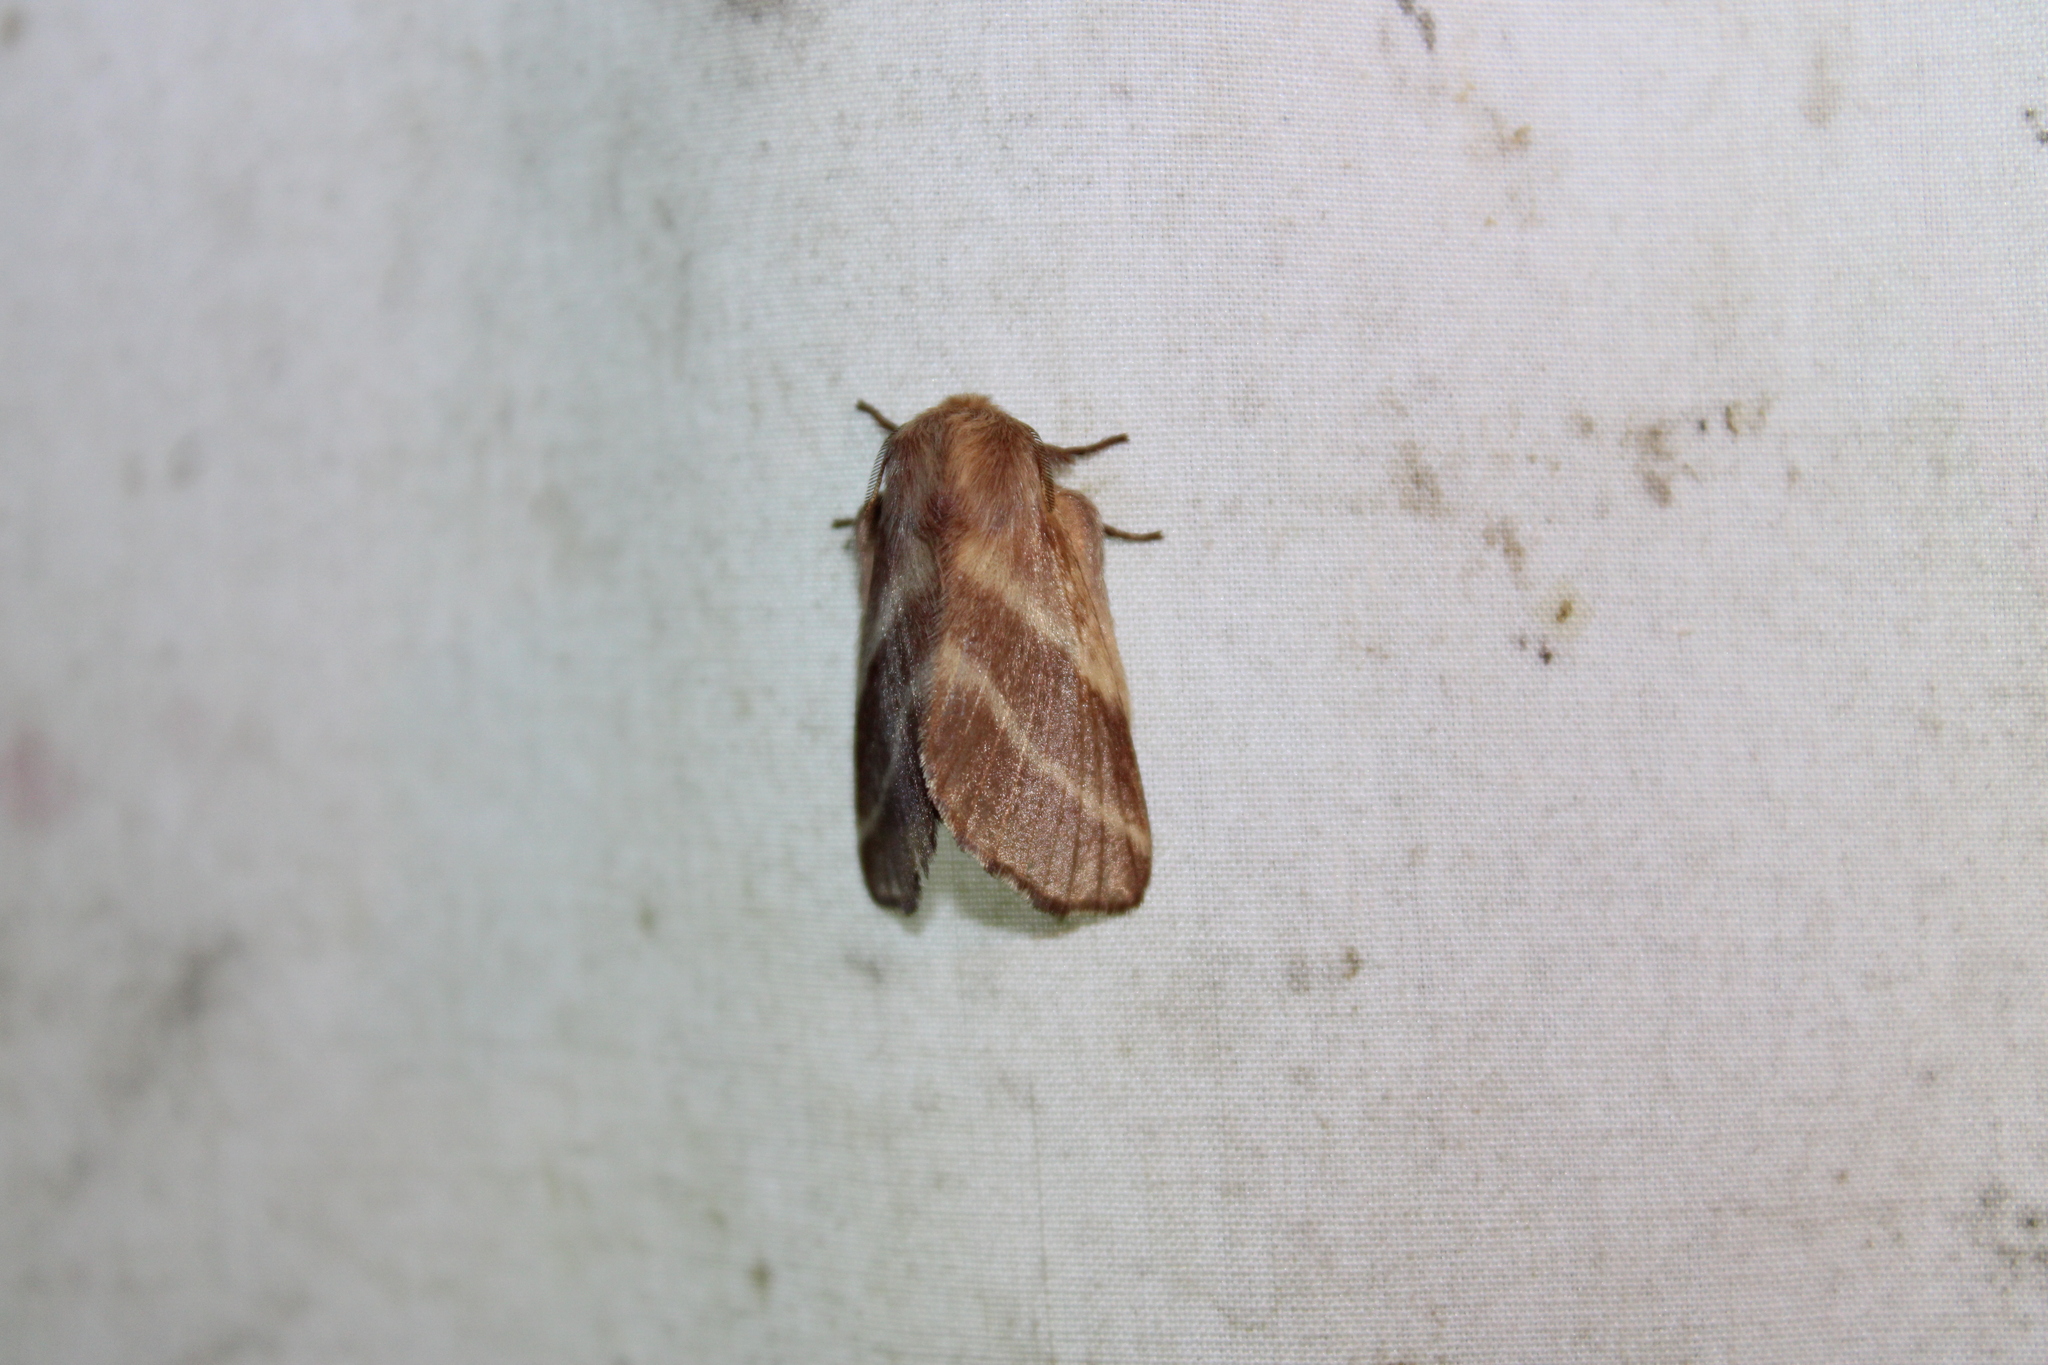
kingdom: Animalia
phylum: Arthropoda
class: Insecta
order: Lepidoptera
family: Lasiocampidae
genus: Malacosoma
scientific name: Malacosoma americana
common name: Eastern tent caterpillar moth
